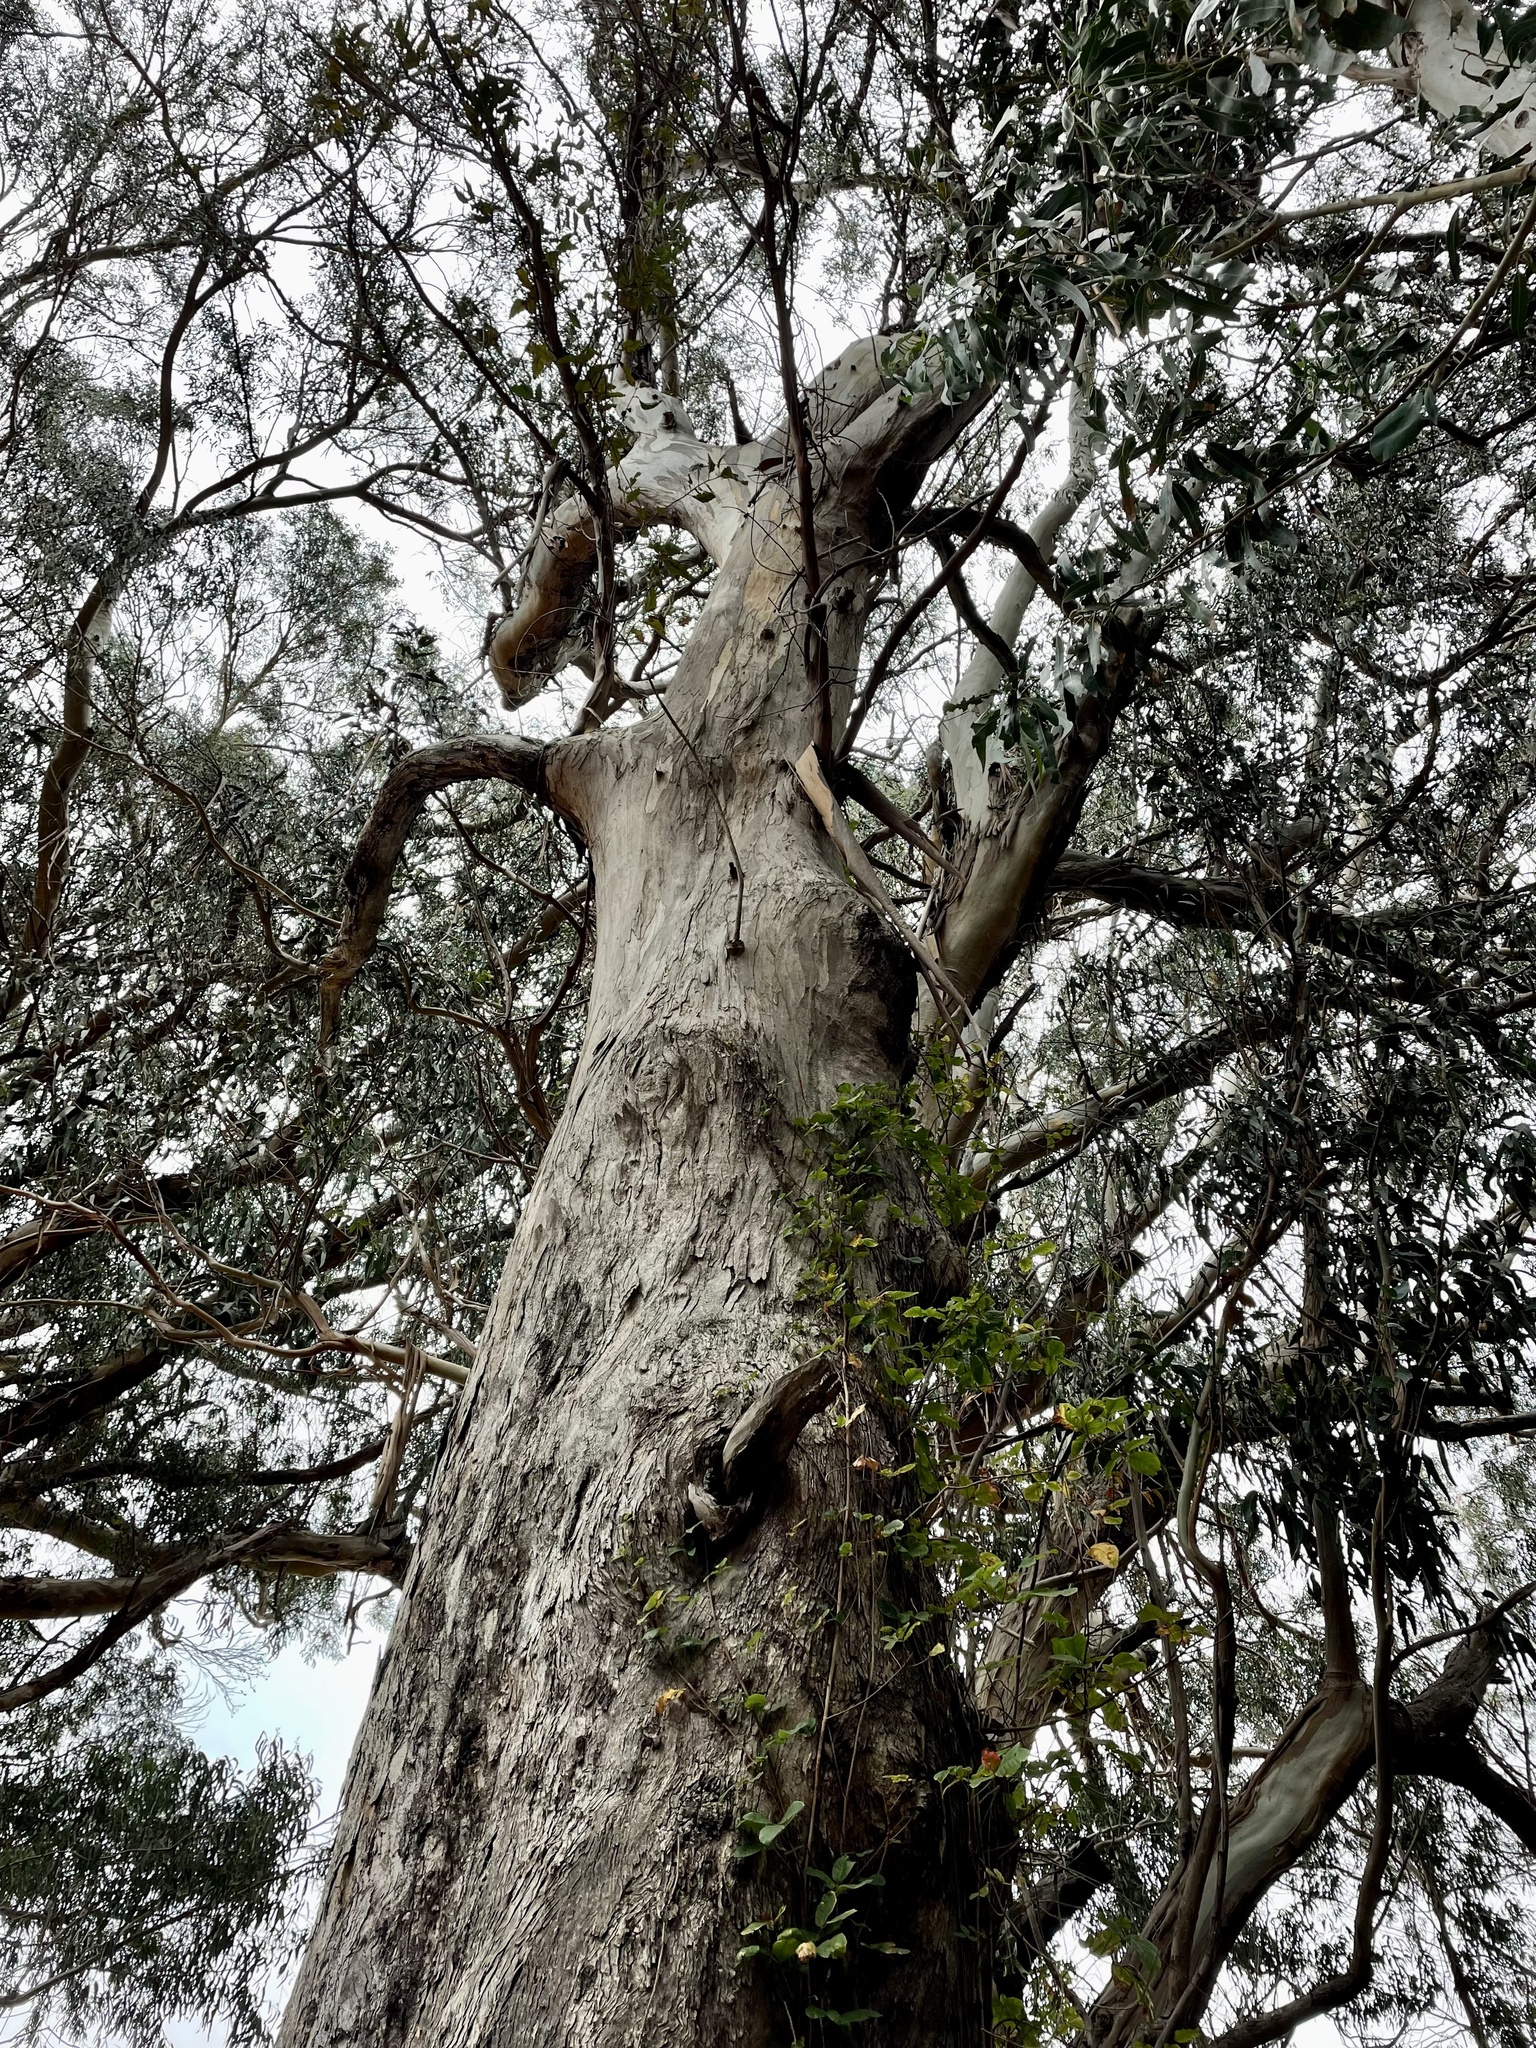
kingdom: Fungi
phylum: Basidiomycota
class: Agaricomycetes
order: Polyporales
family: Laetiporaceae
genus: Laetiporus
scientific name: Laetiporus gilbertsonii
